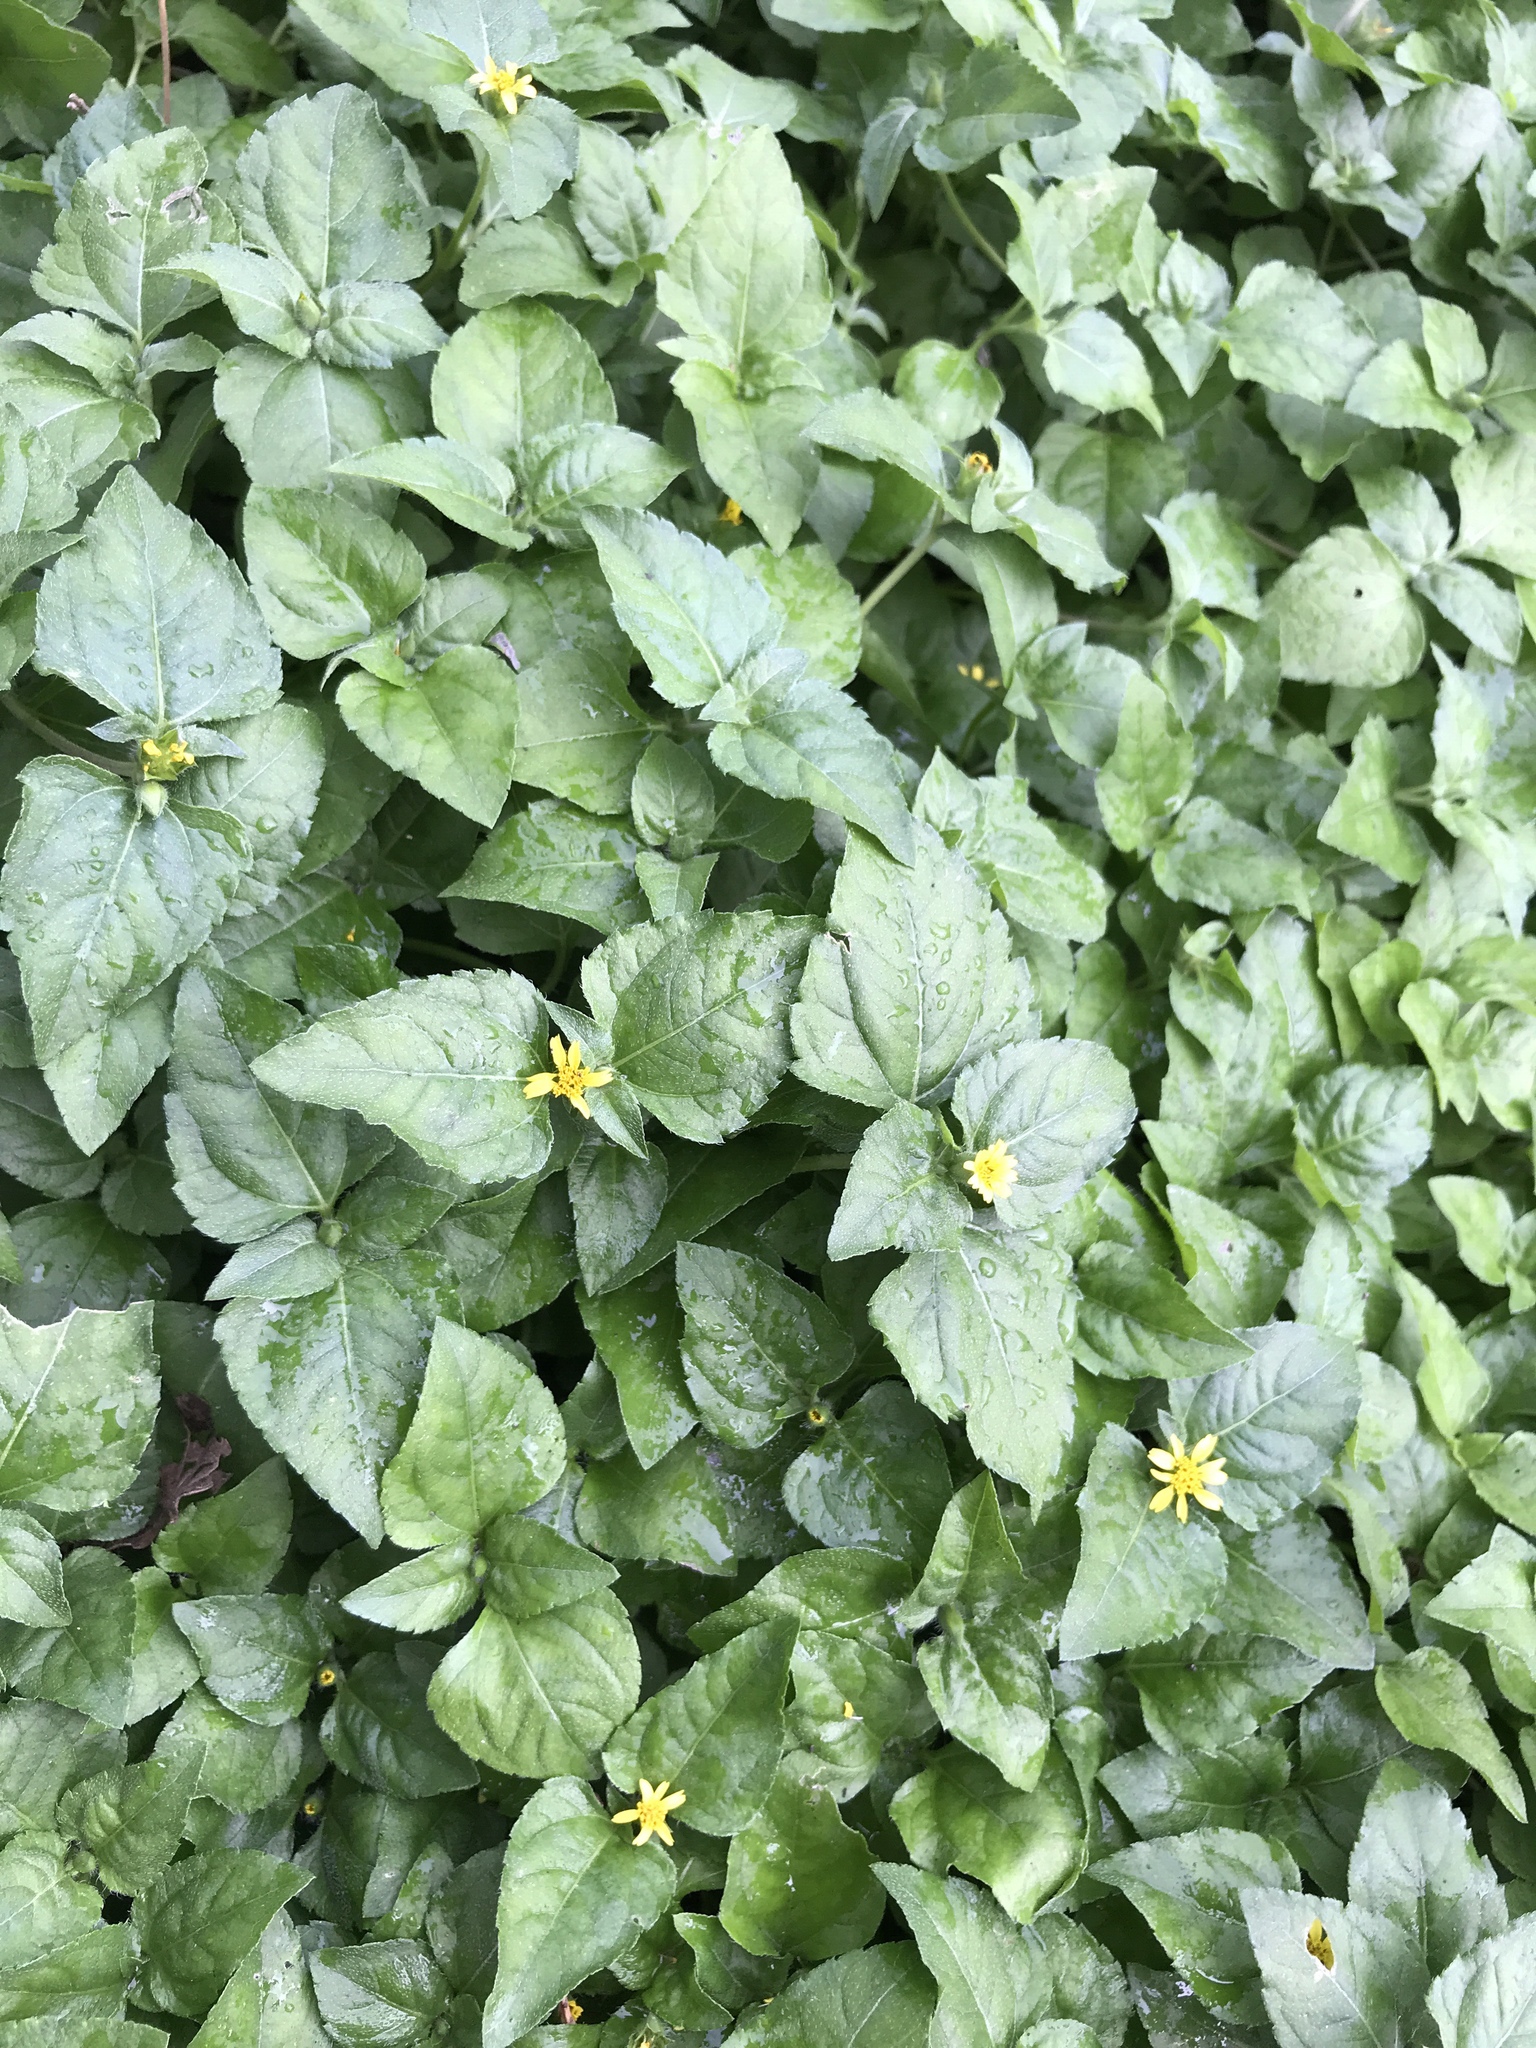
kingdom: Plantae
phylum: Tracheophyta
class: Magnoliopsida
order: Asterales
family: Asteraceae
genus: Calyptocarpus
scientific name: Calyptocarpus vialis
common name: Straggler daisy
